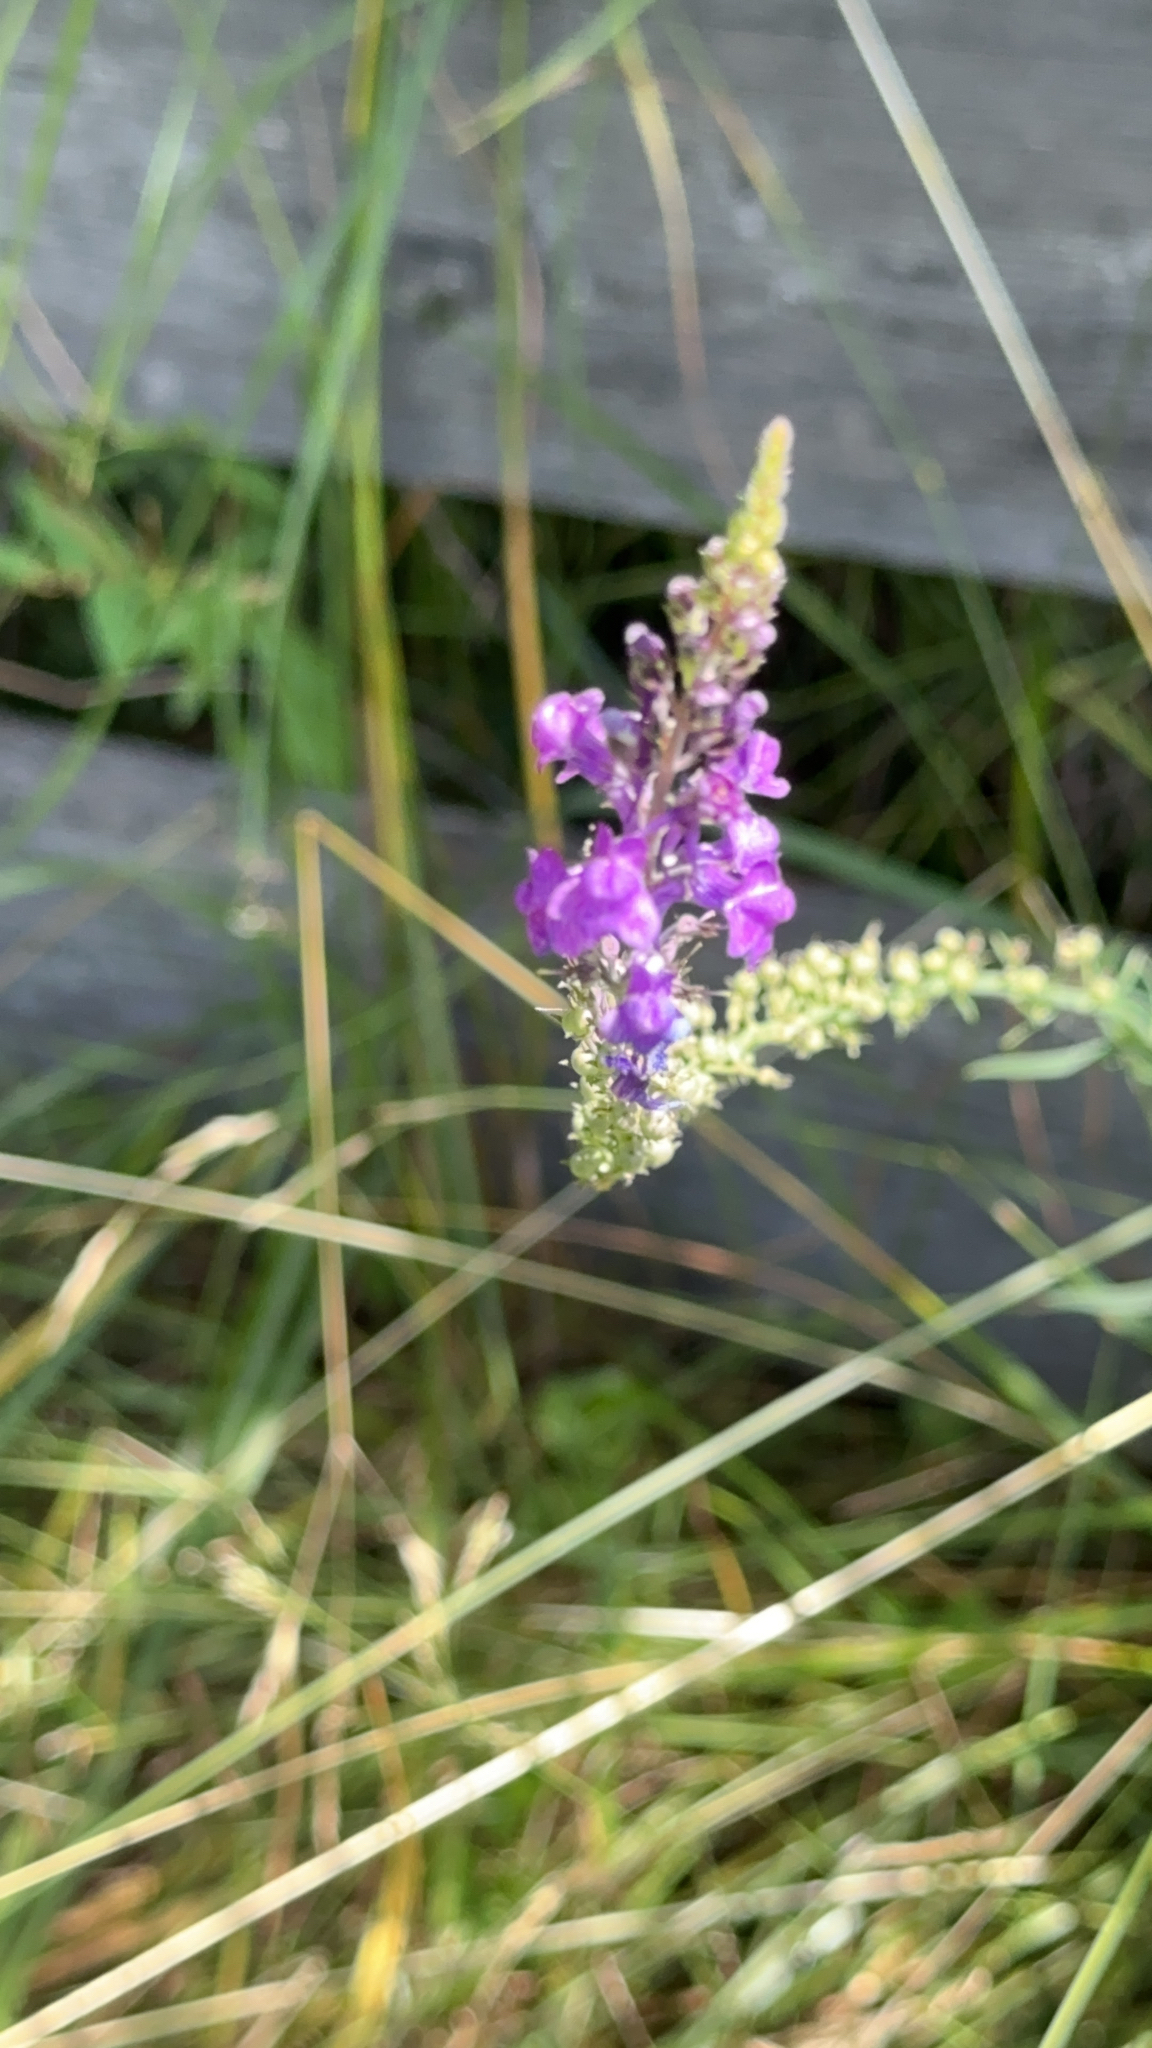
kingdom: Plantae
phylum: Tracheophyta
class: Magnoliopsida
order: Lamiales
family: Plantaginaceae
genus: Linaria
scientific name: Linaria purpurea
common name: Purple toadflax
